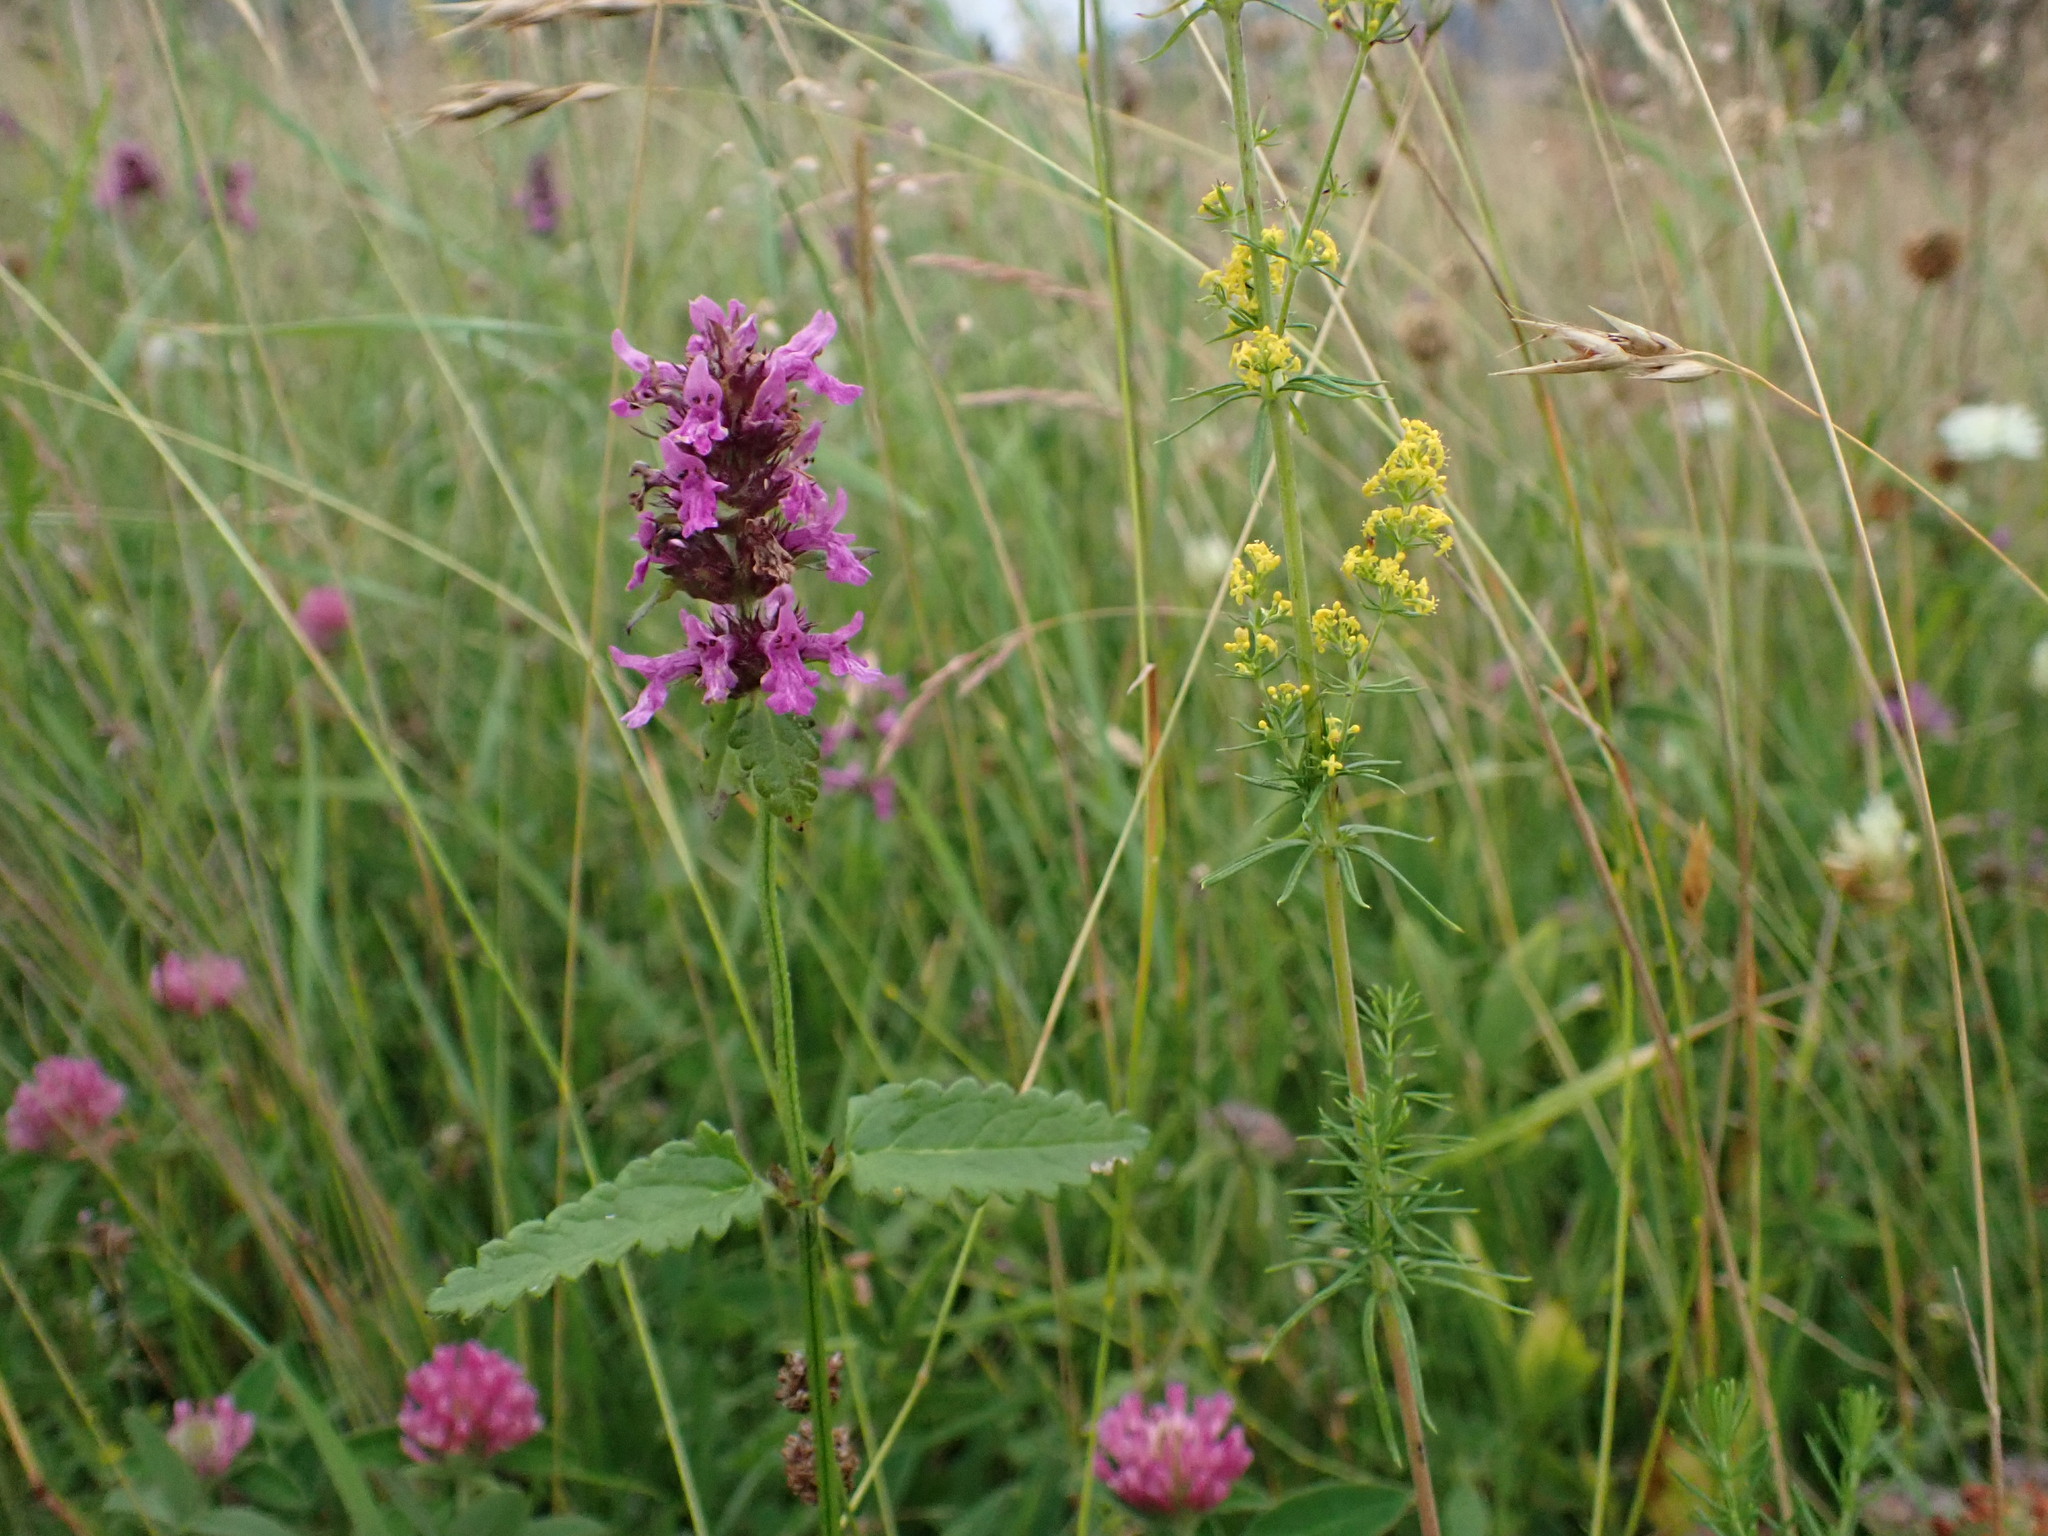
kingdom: Plantae
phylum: Tracheophyta
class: Magnoliopsida
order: Lamiales
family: Lamiaceae
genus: Betonica
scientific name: Betonica officinalis
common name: Bishop's-wort
